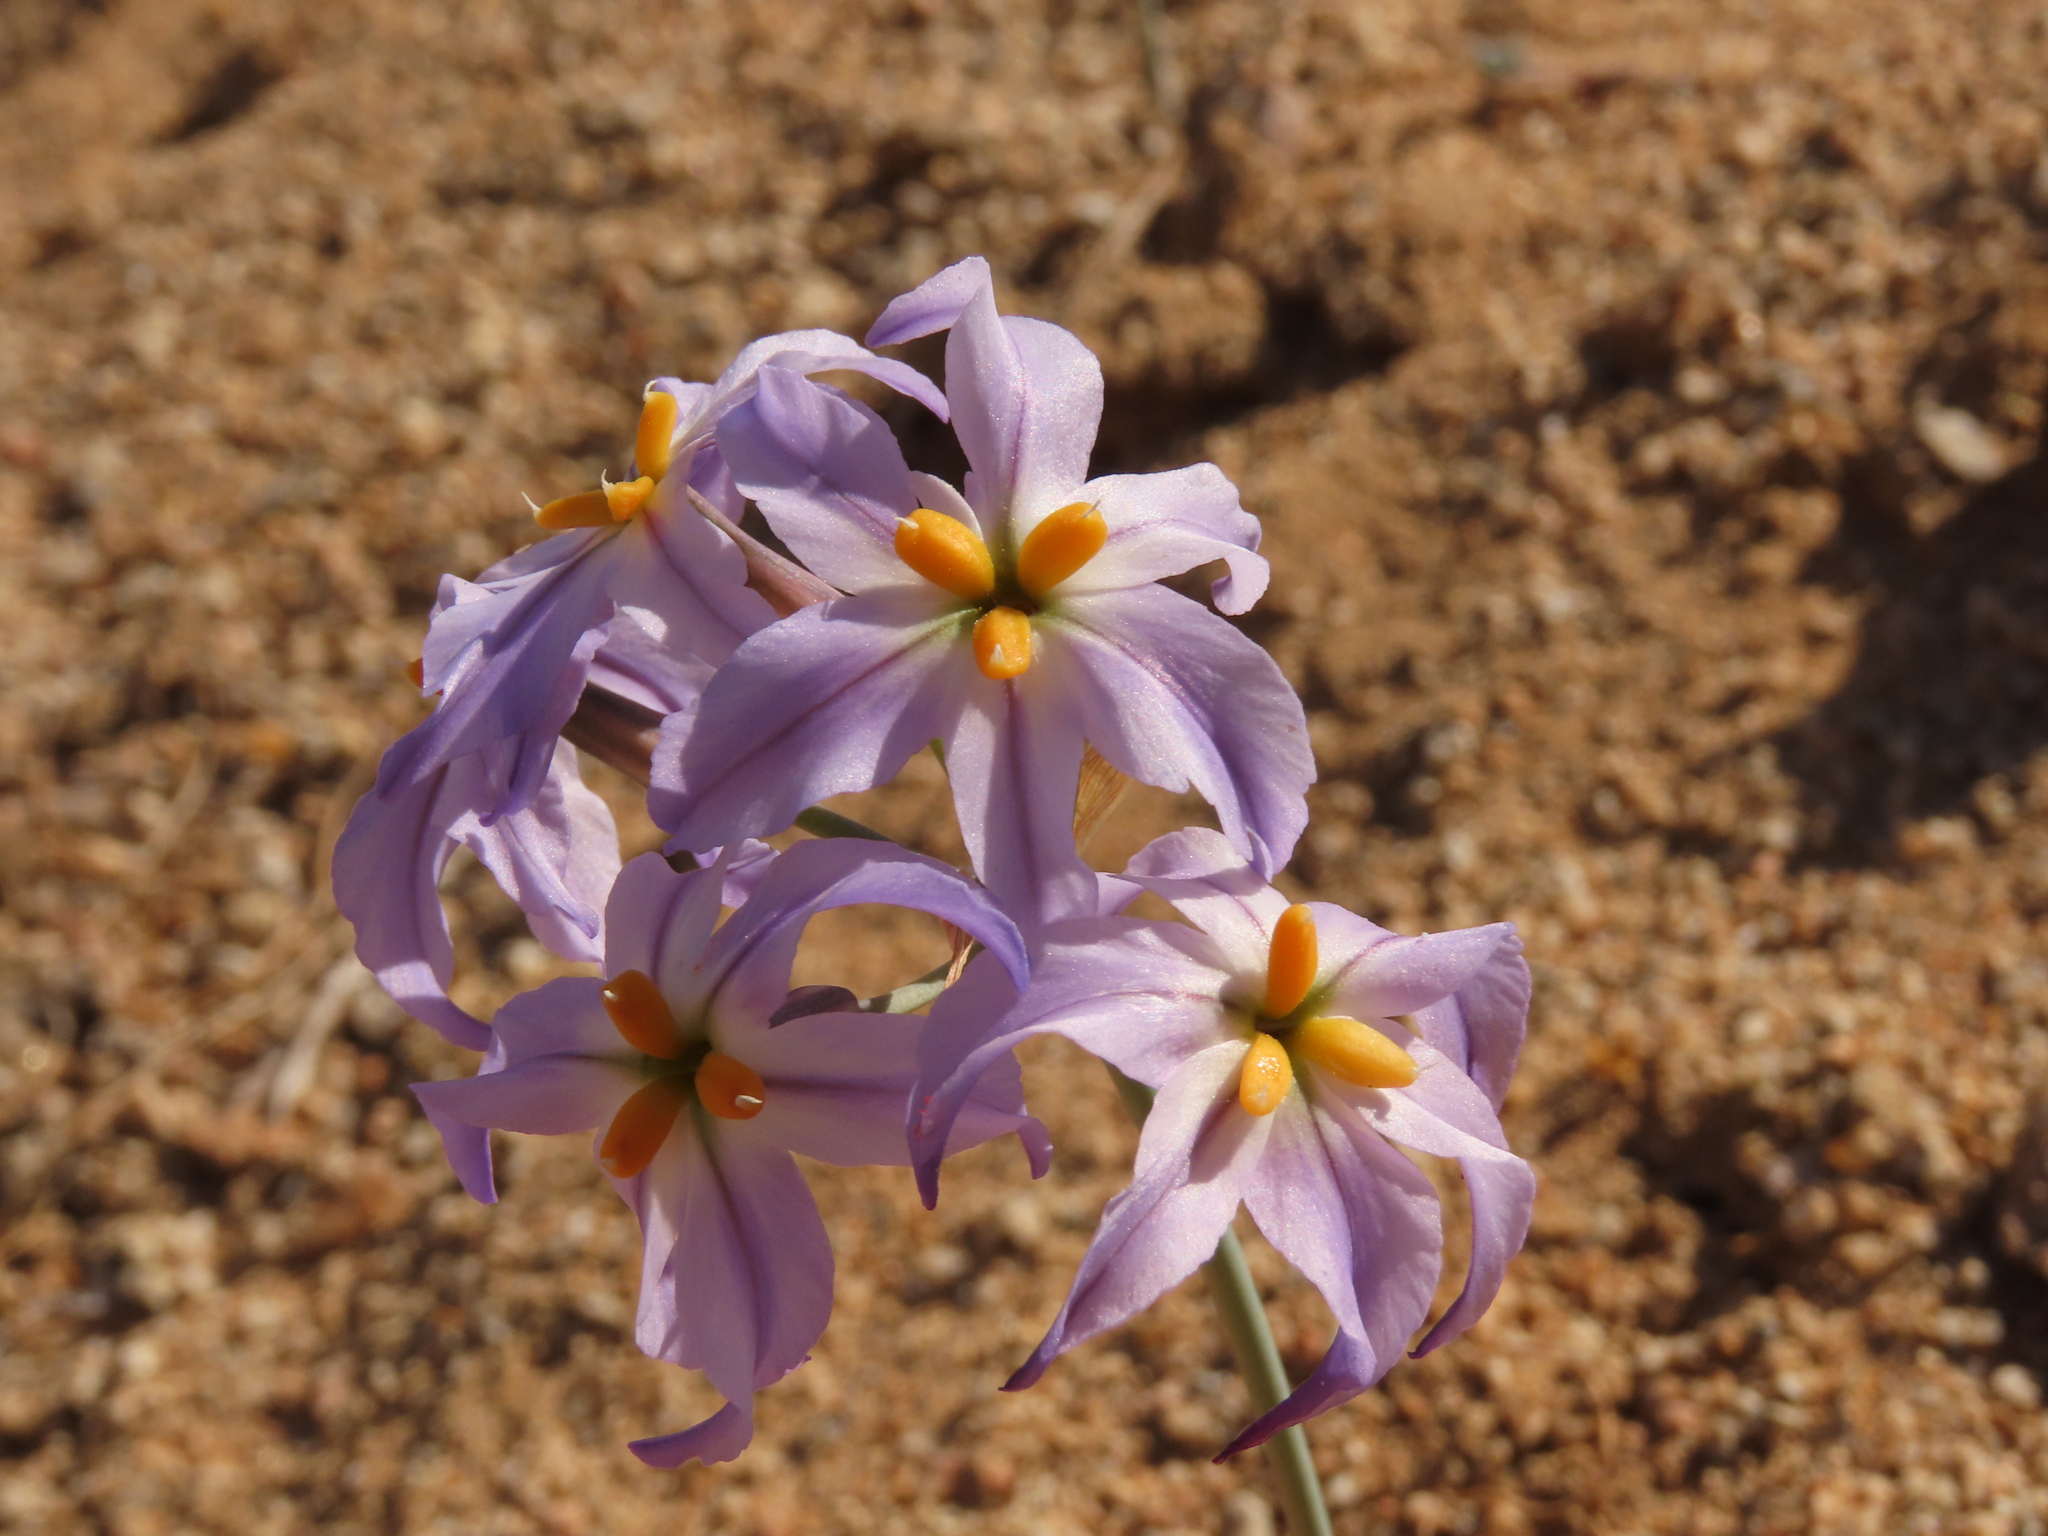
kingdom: Plantae
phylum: Tracheophyta
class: Liliopsida
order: Asparagales
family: Amaryllidaceae
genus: Leucocoryne
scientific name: Leucocoryne appendiculata
